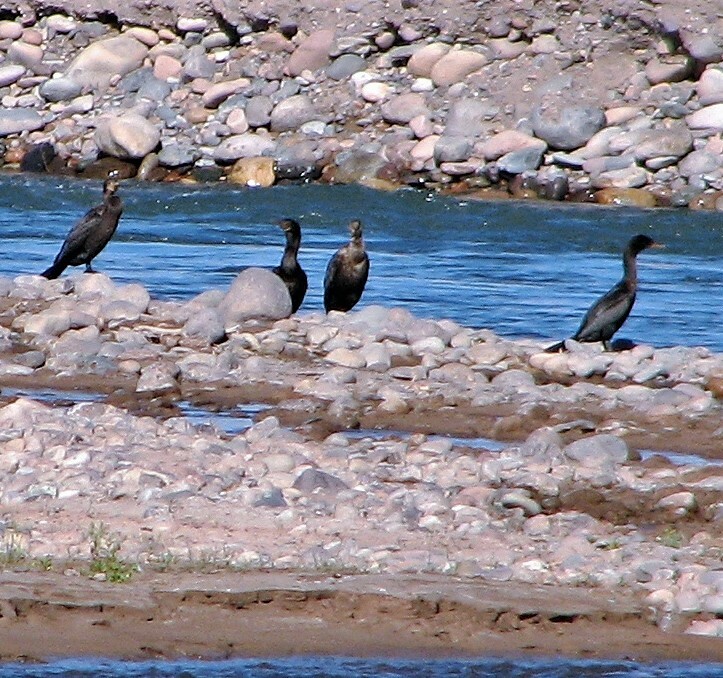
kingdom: Animalia
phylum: Chordata
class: Aves
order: Suliformes
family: Phalacrocoracidae
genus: Phalacrocorax
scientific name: Phalacrocorax brasilianus
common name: Neotropic cormorant
